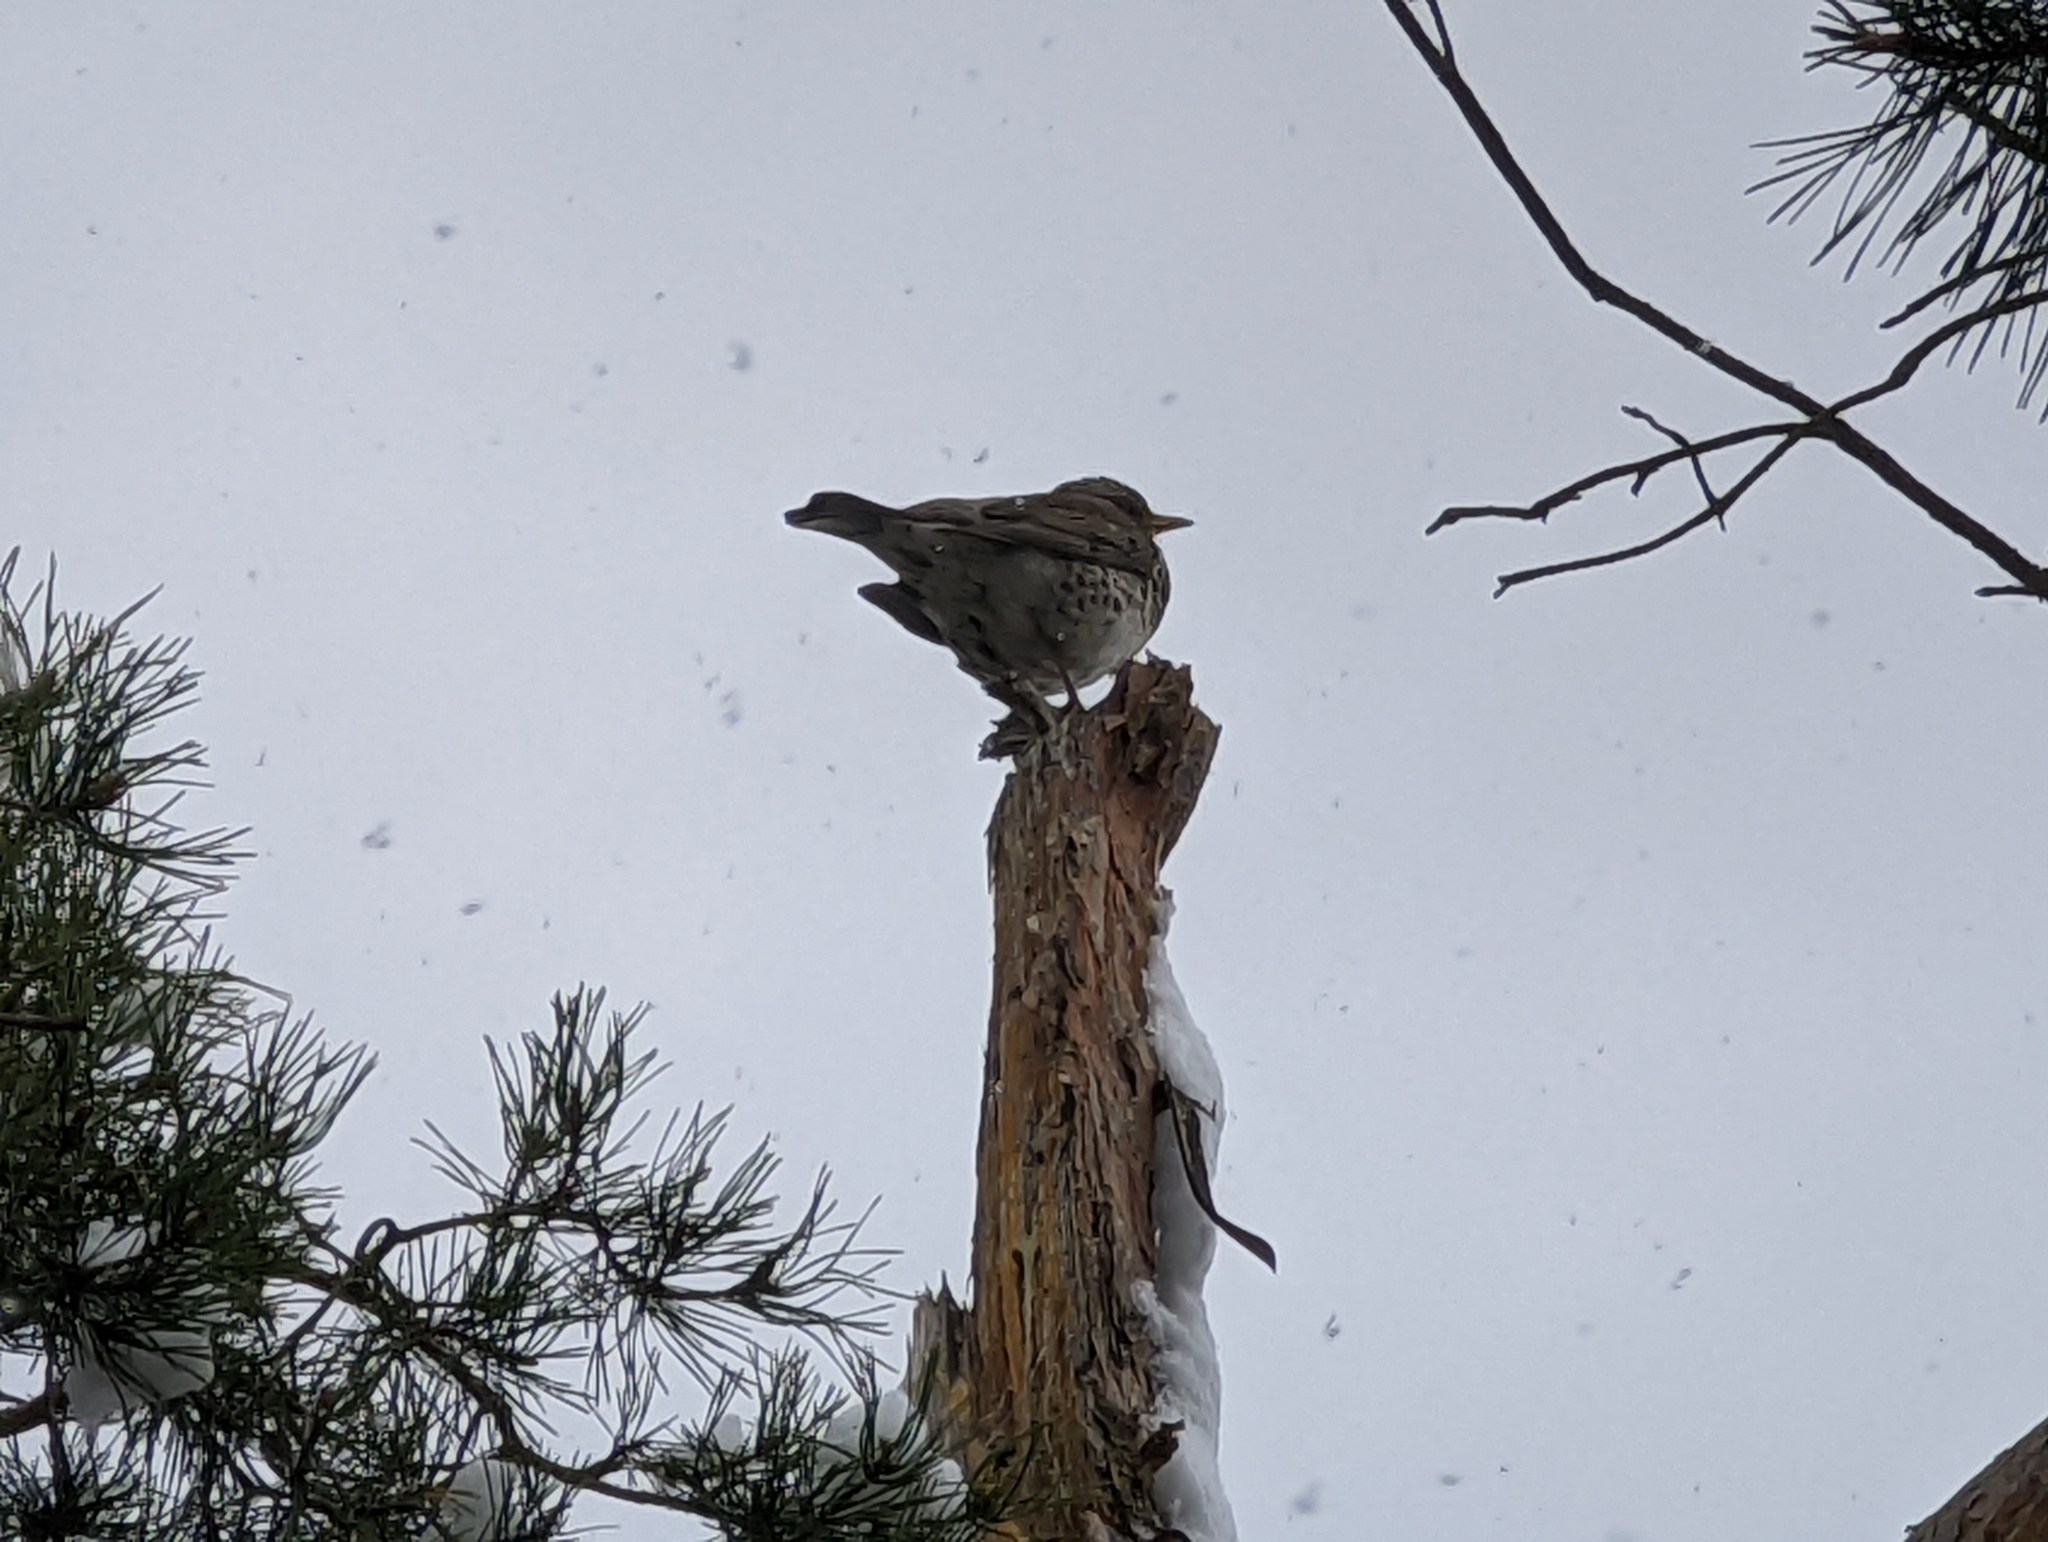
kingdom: Animalia
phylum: Chordata
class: Aves
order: Passeriformes
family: Turdidae
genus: Turdus
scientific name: Turdus pilaris
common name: Fieldfare
